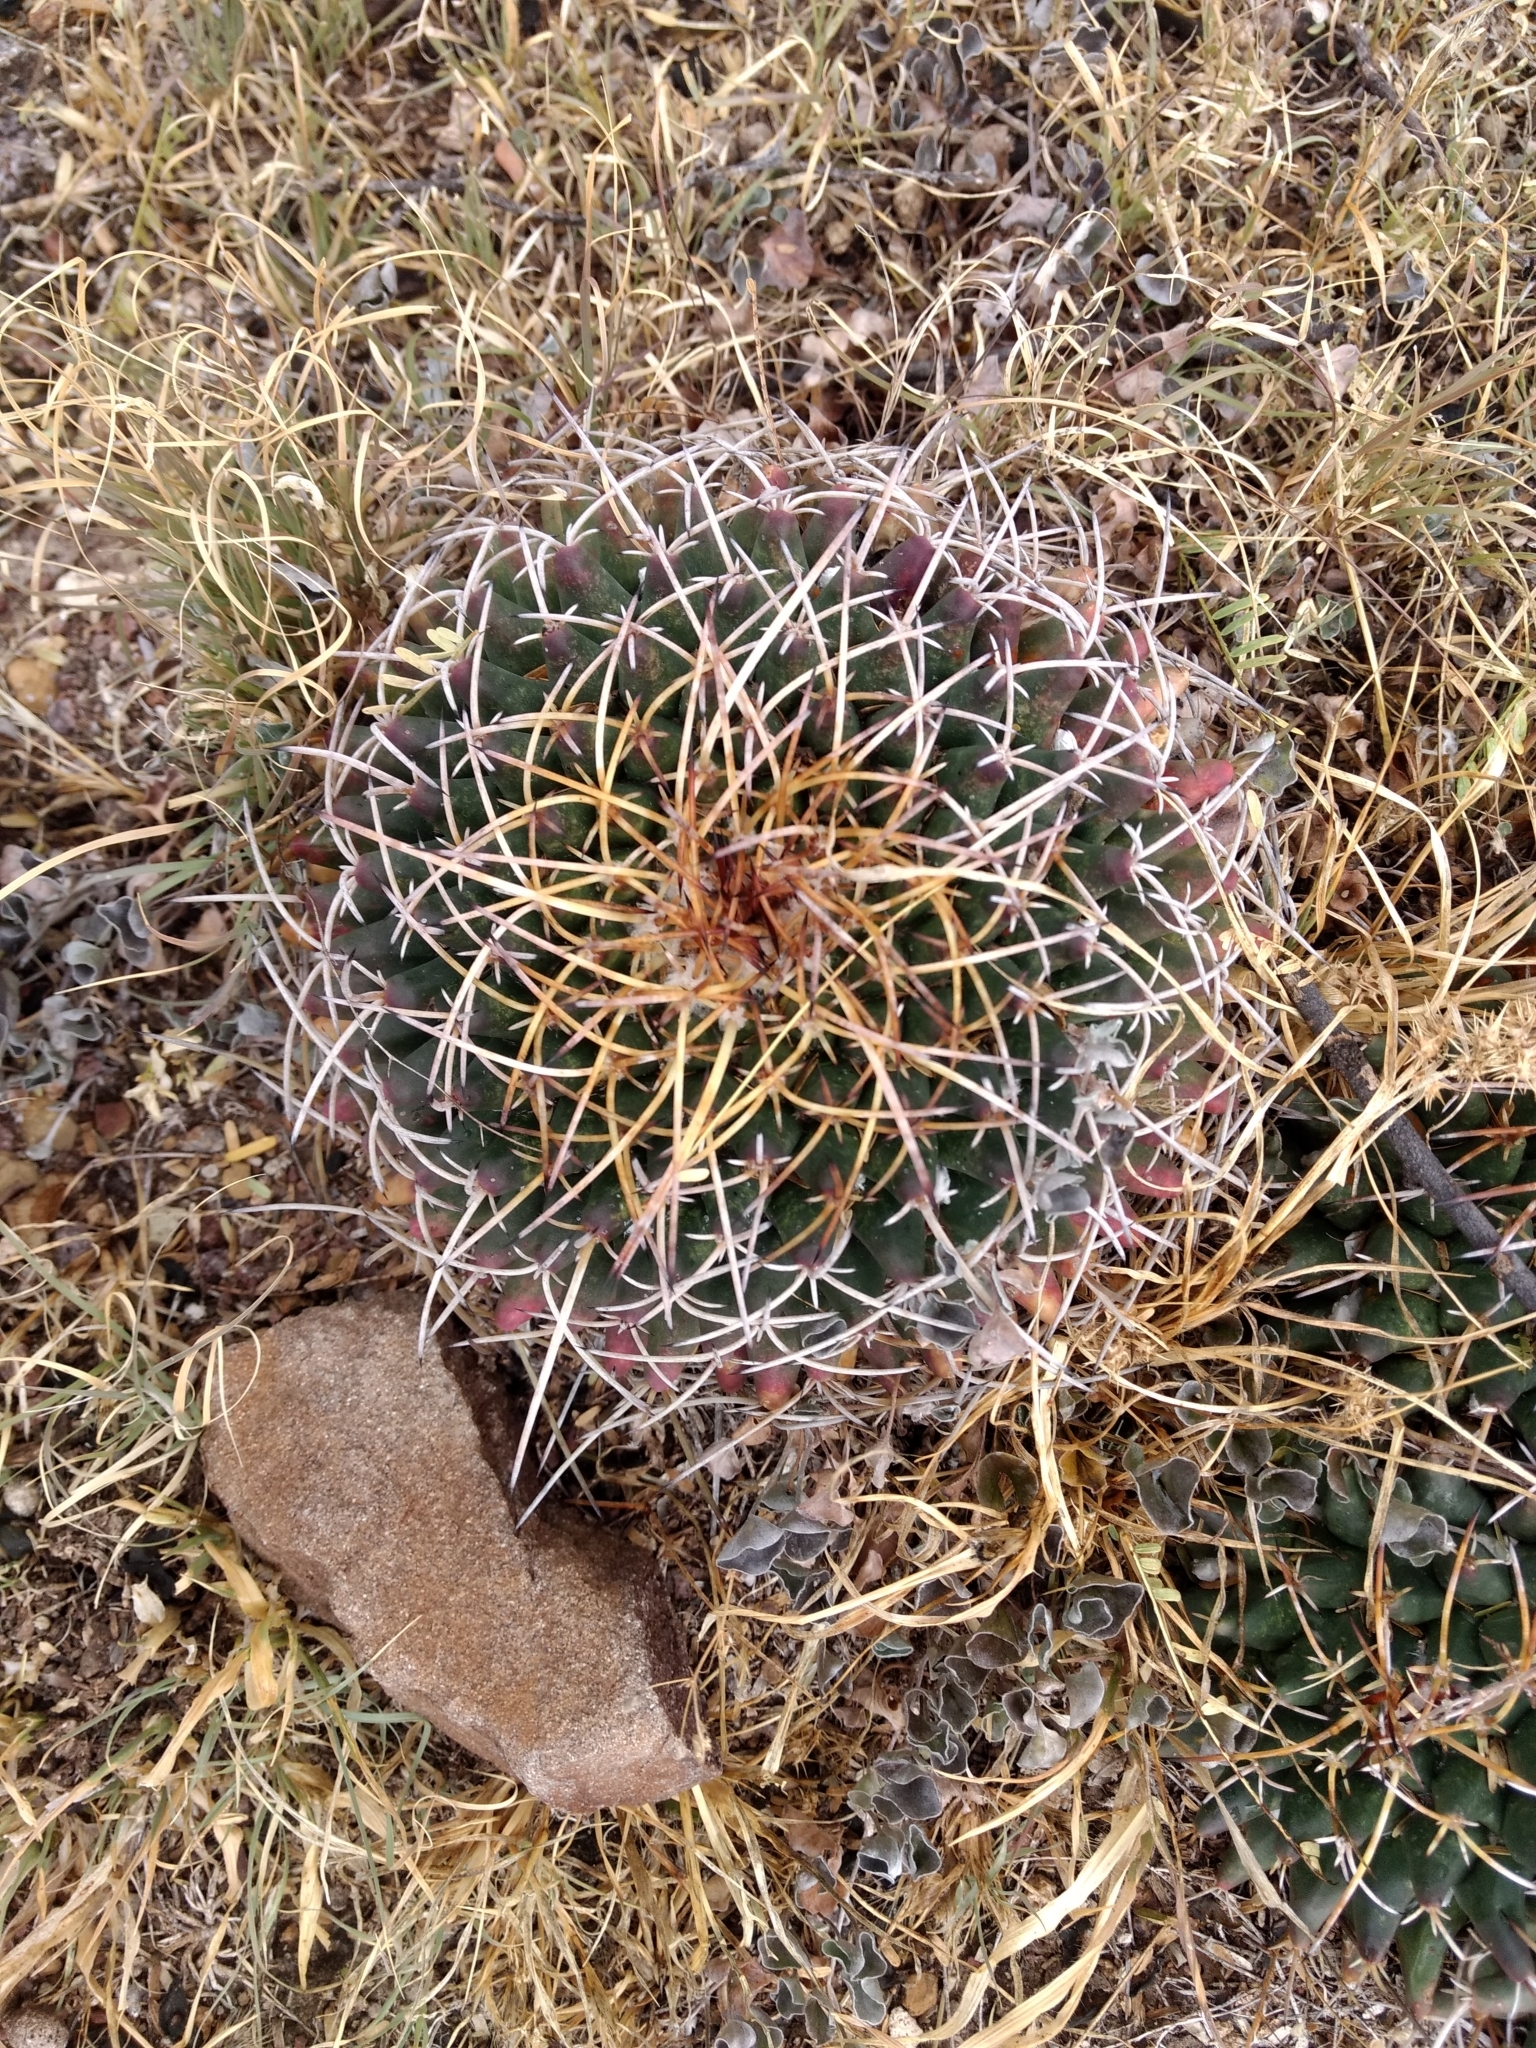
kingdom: Plantae
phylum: Tracheophyta
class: Magnoliopsida
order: Caryophyllales
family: Cactaceae
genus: Mammillaria
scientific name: Mammillaria magnimamma
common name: Mexican pincushion
